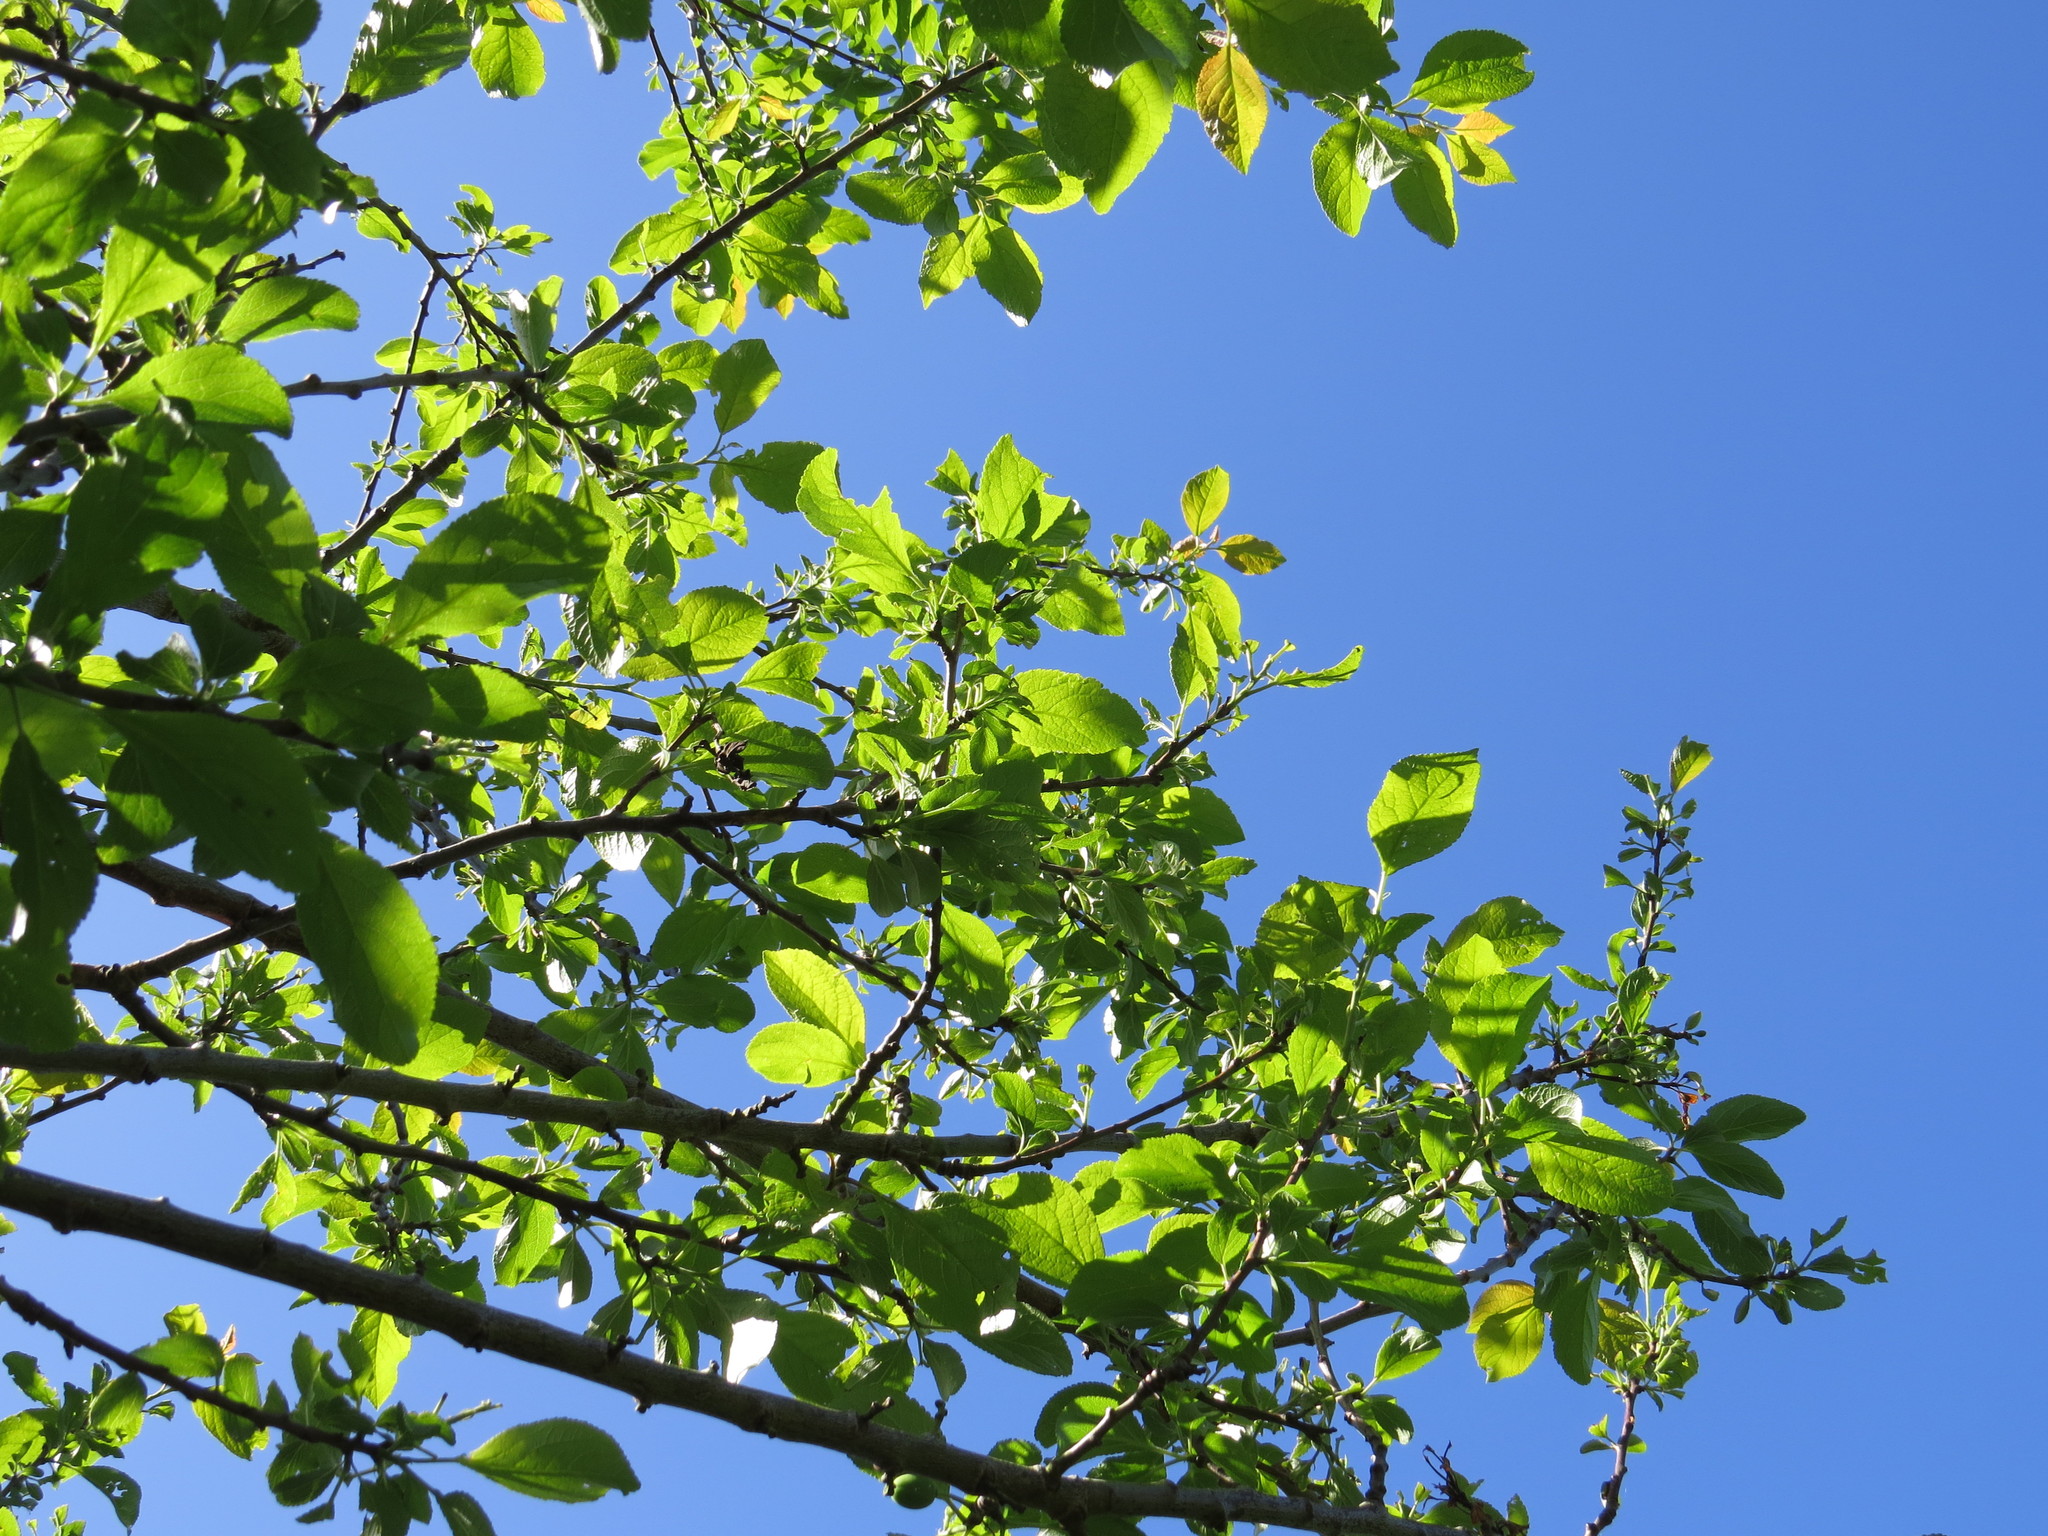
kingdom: Plantae
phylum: Tracheophyta
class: Magnoliopsida
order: Fagales
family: Betulaceae
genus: Alnus
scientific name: Alnus glutinosa
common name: Black alder
